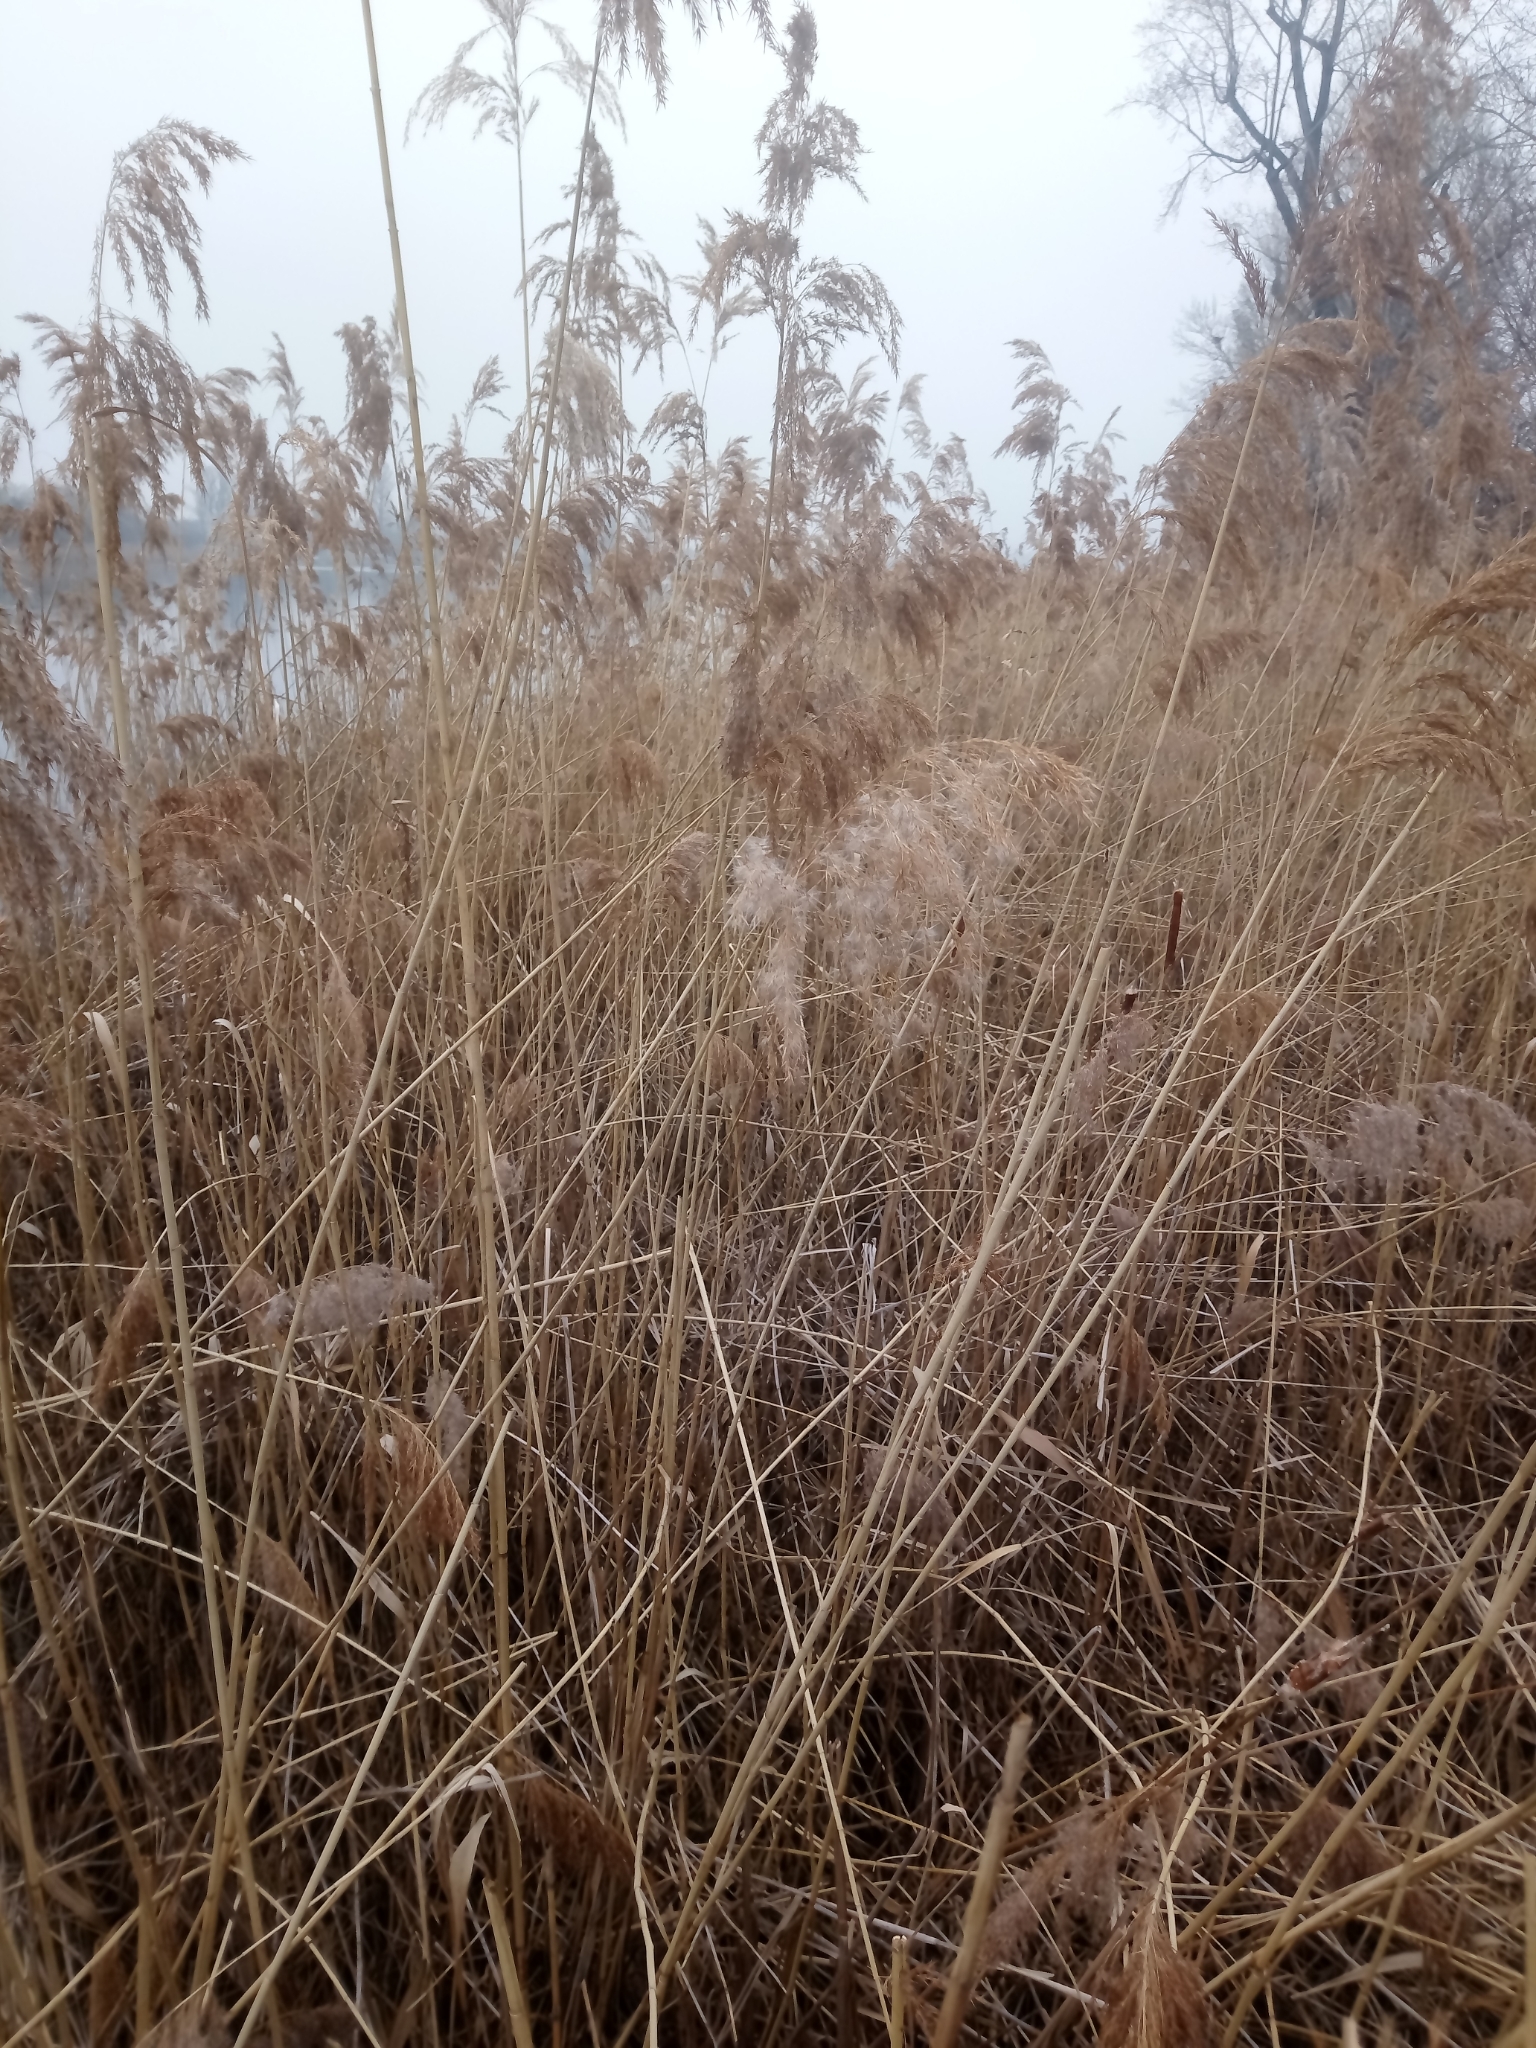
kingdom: Plantae
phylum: Tracheophyta
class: Liliopsida
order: Poales
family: Poaceae
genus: Phragmites
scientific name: Phragmites australis
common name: Common reed
